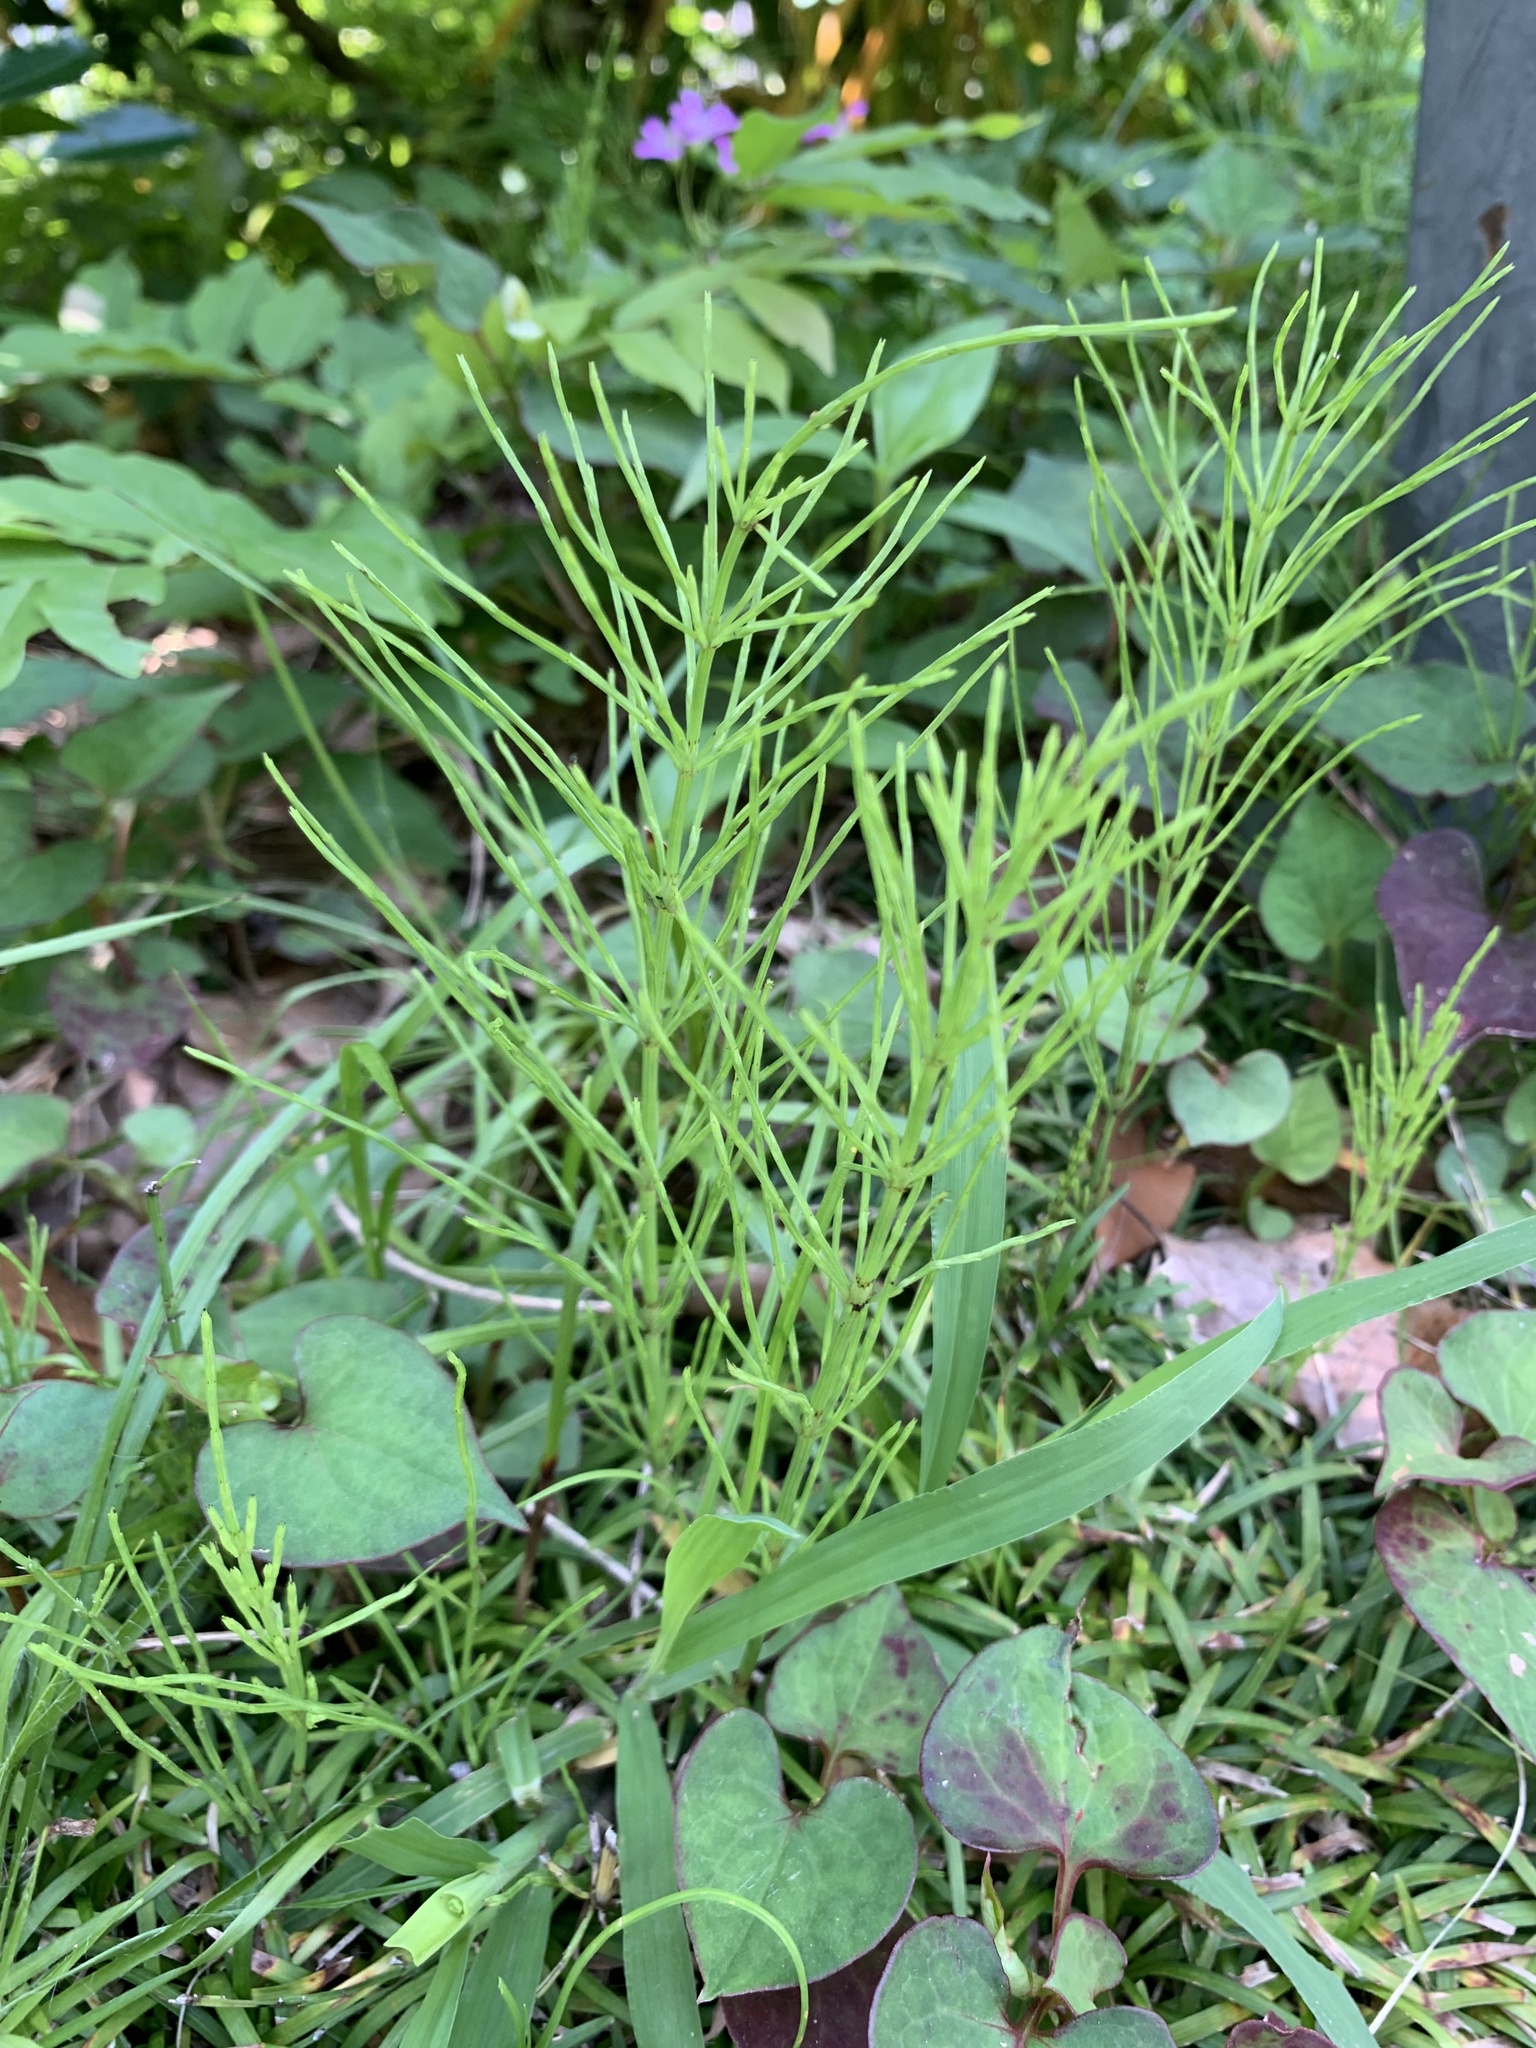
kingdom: Plantae
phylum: Tracheophyta
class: Polypodiopsida
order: Equisetales
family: Equisetaceae
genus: Equisetum
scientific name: Equisetum arvense
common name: Field horsetail
